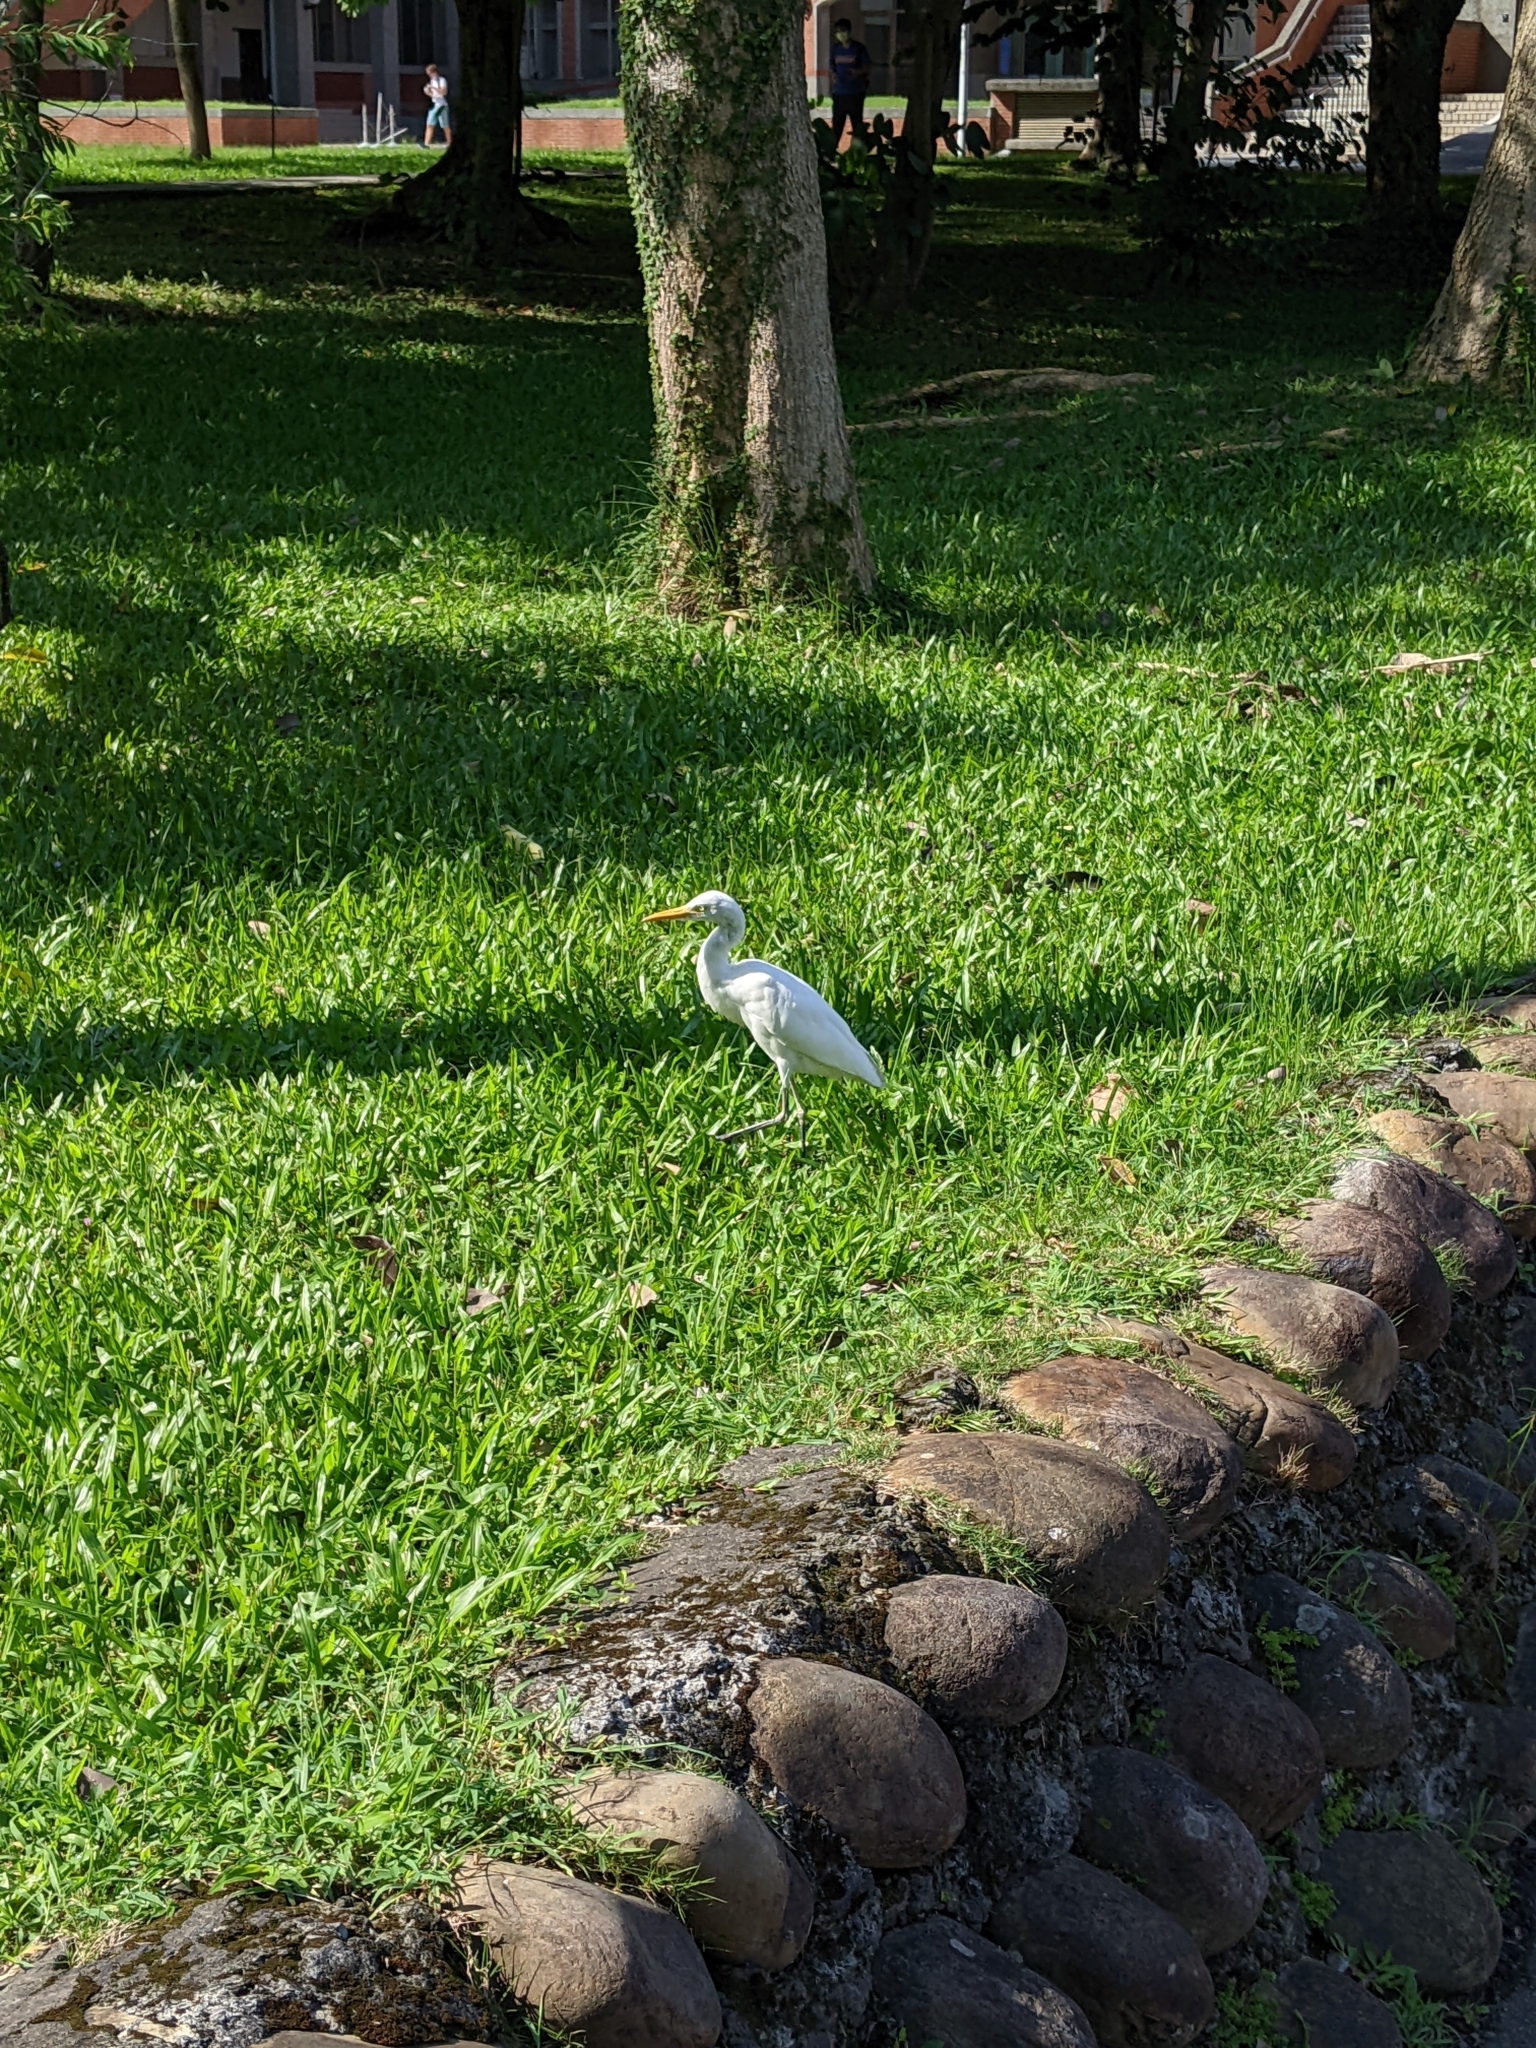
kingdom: Animalia
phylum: Chordata
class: Aves
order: Pelecaniformes
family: Ardeidae
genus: Egretta
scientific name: Egretta intermedia
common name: Intermediate egret
